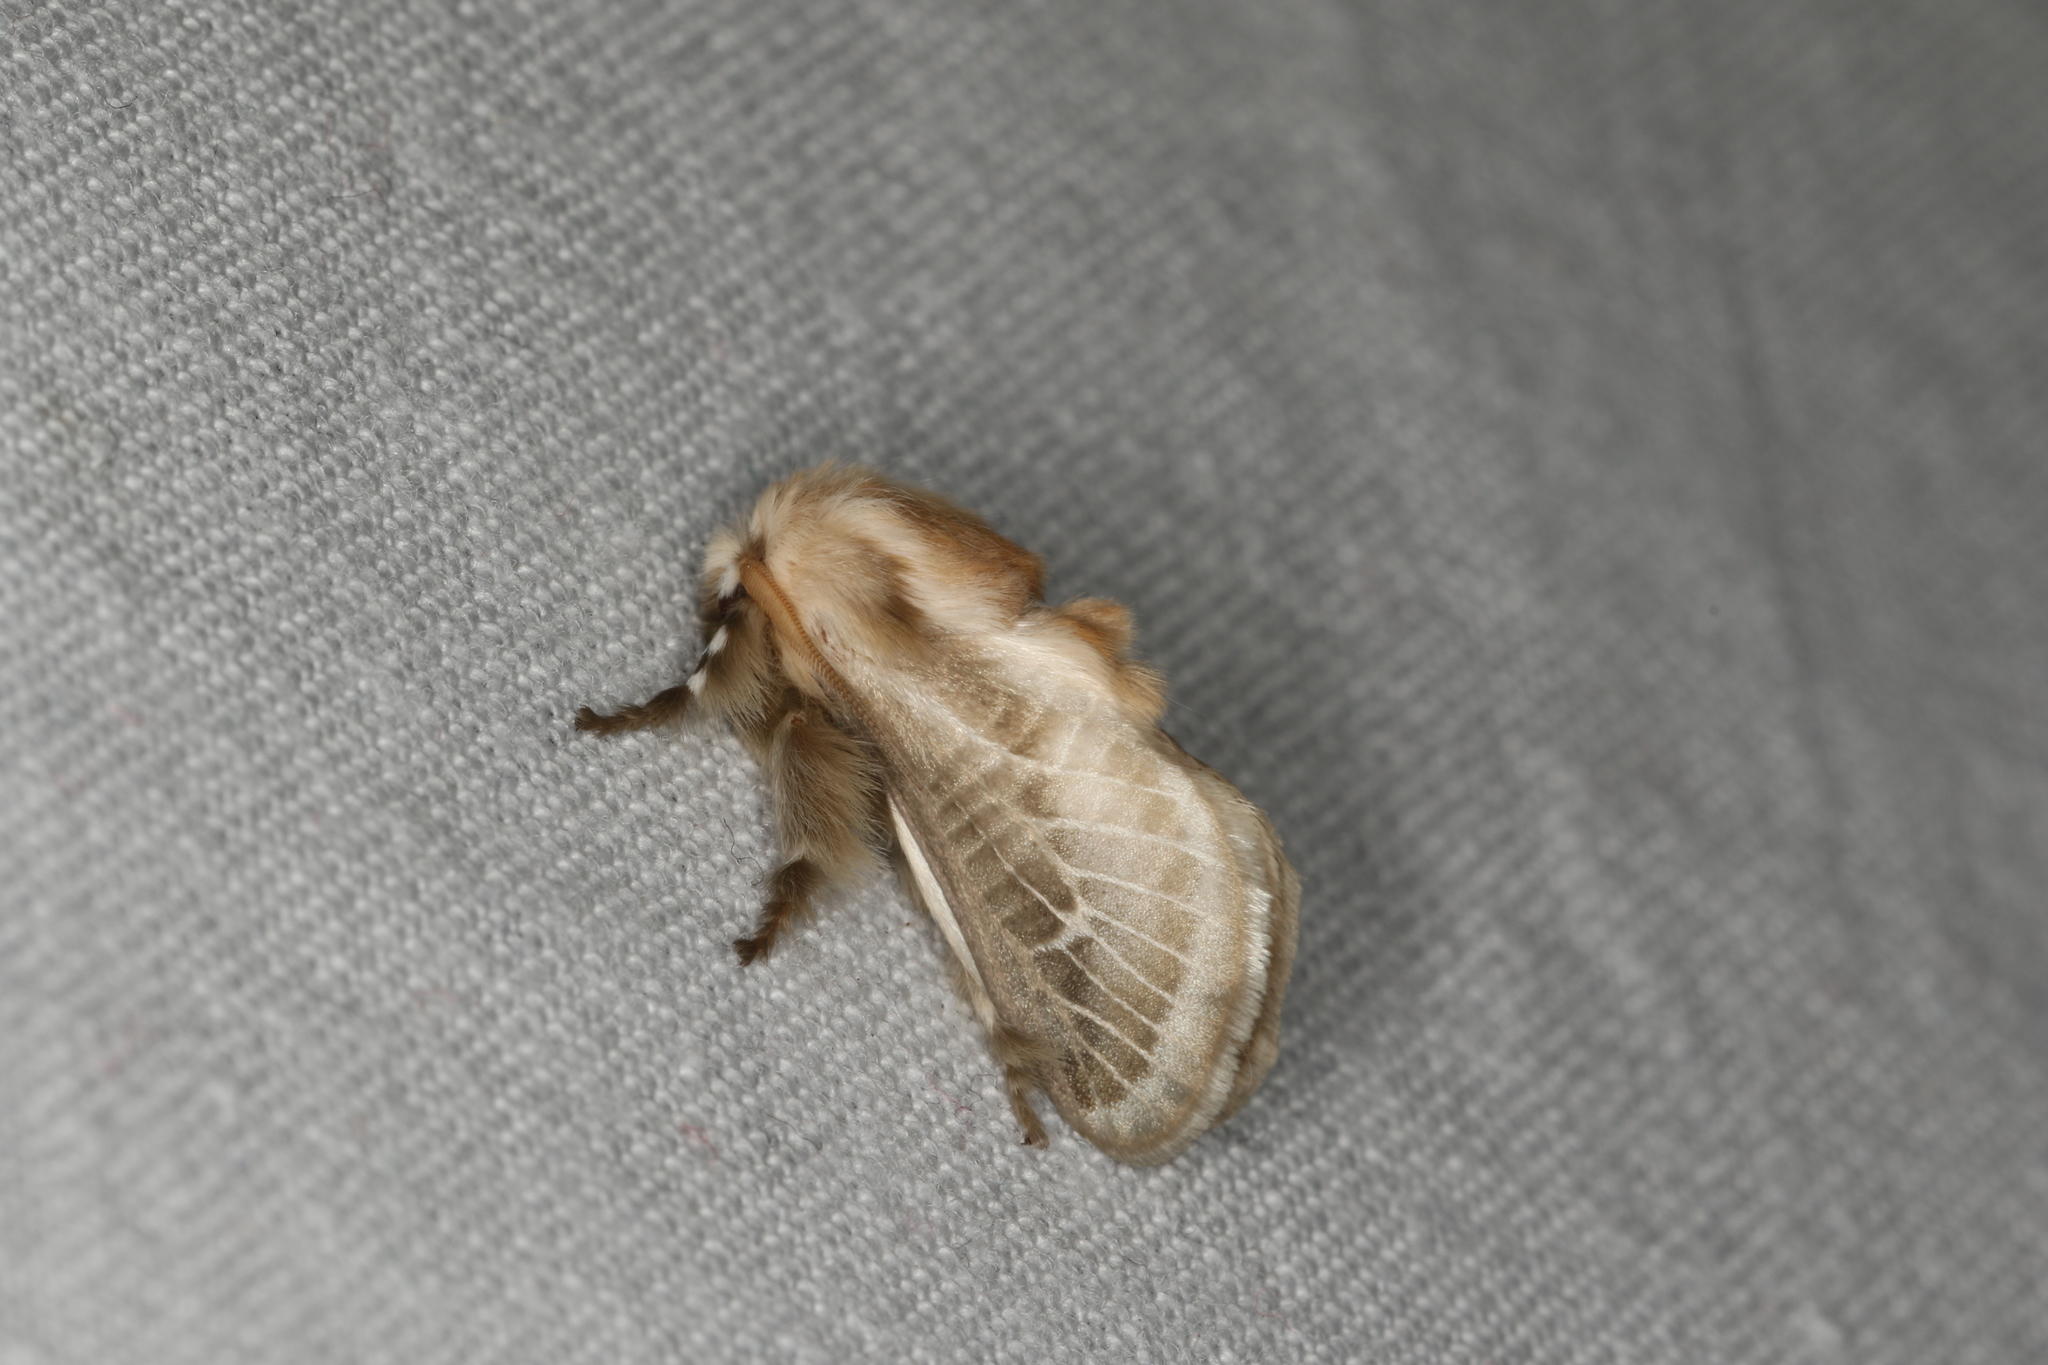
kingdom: Animalia
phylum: Arthropoda
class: Insecta
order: Lepidoptera
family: Limacodidae
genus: Doratifera
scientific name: Doratifera pinguis
